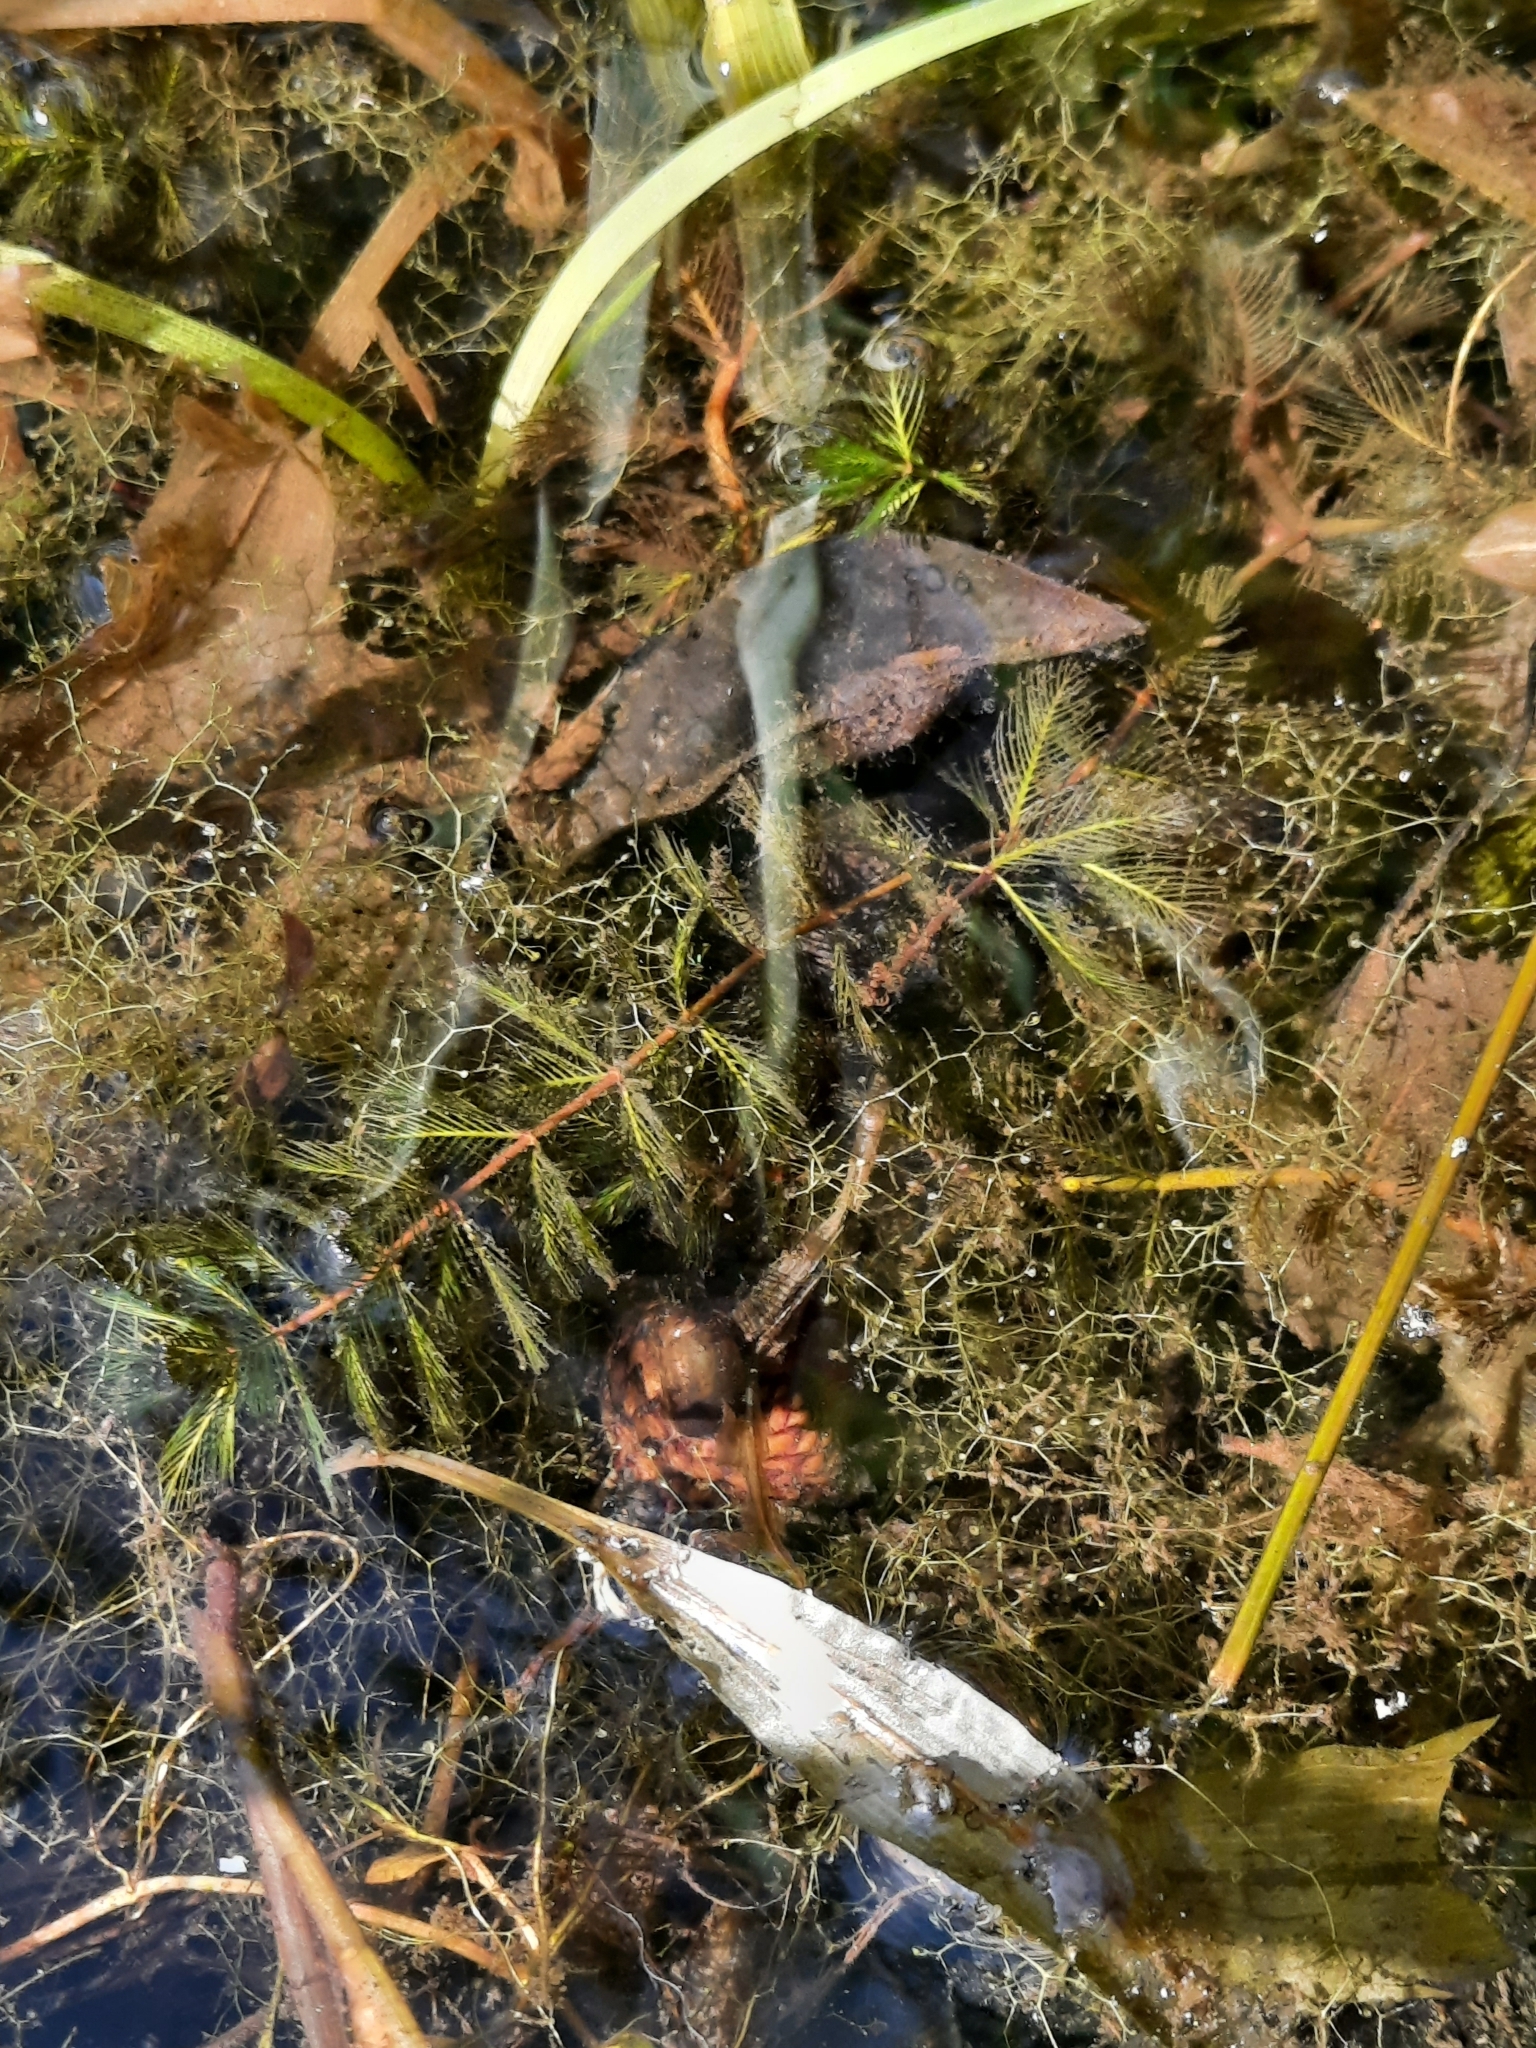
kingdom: Plantae
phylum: Tracheophyta
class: Magnoliopsida
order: Saxifragales
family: Haloragaceae
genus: Myriophyllum
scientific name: Myriophyllum spicatum
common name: Spiked water-milfoil
